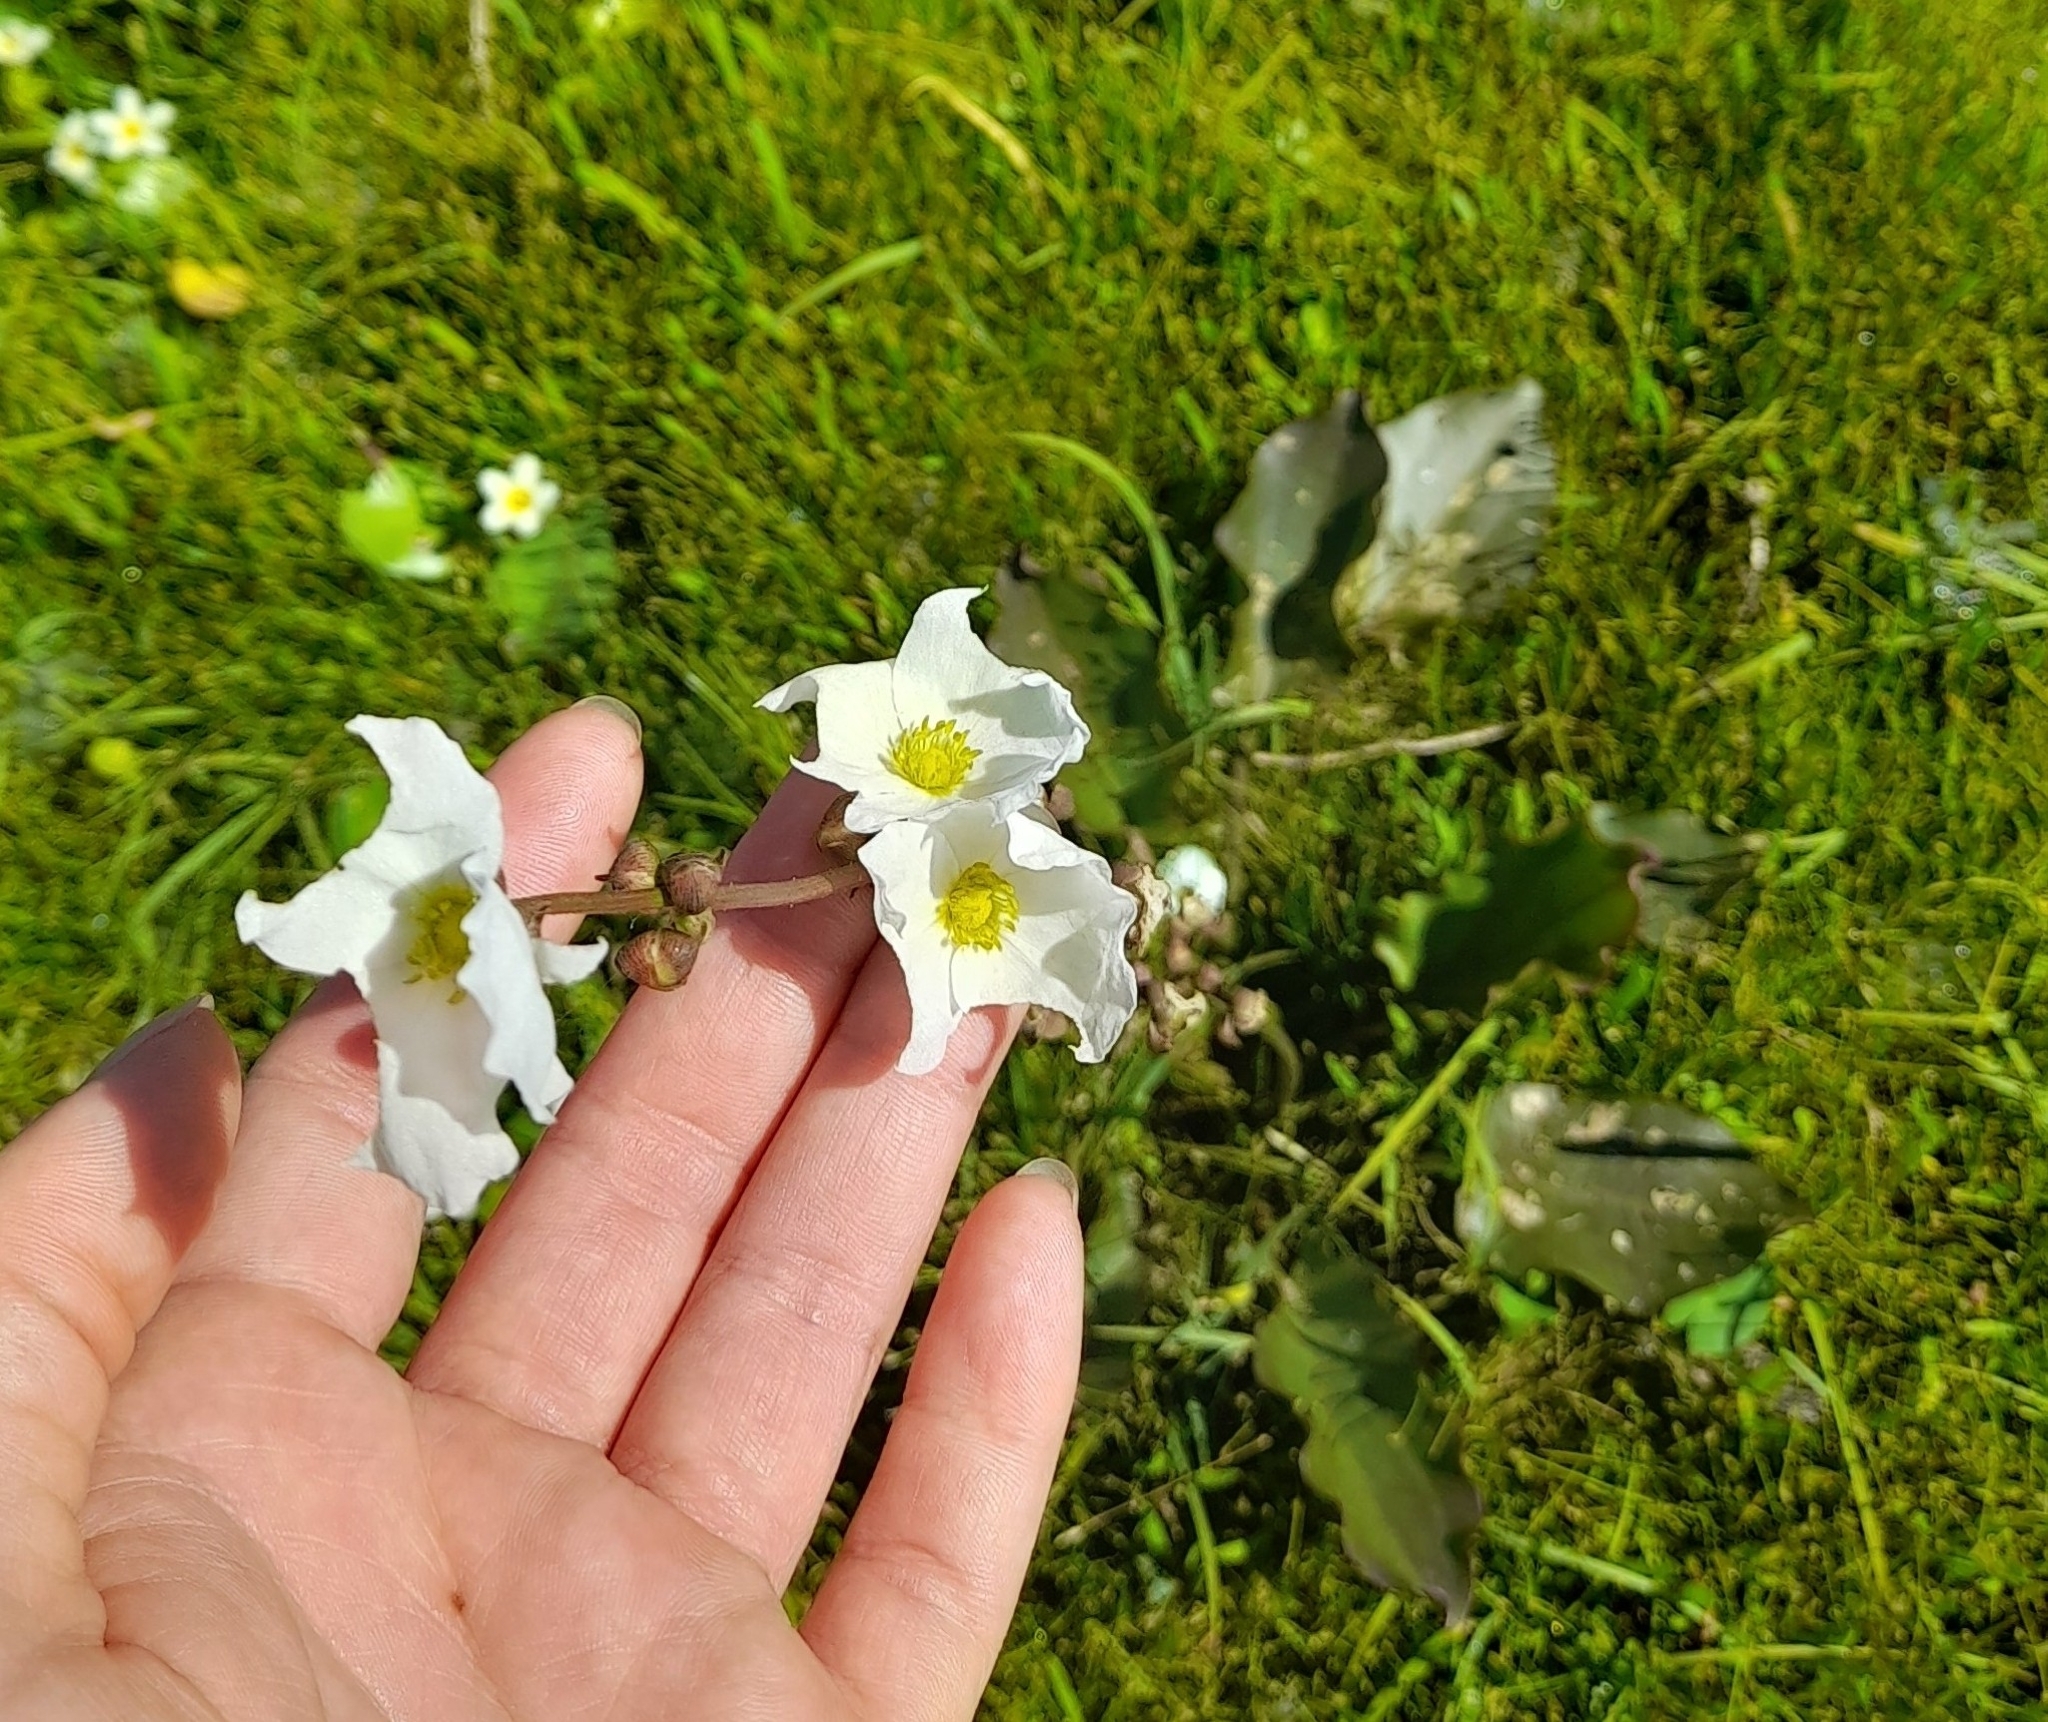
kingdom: Plantae
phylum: Tracheophyta
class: Liliopsida
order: Alismatales
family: Alismataceae
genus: Aquarius
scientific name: Aquarius longiscapus
